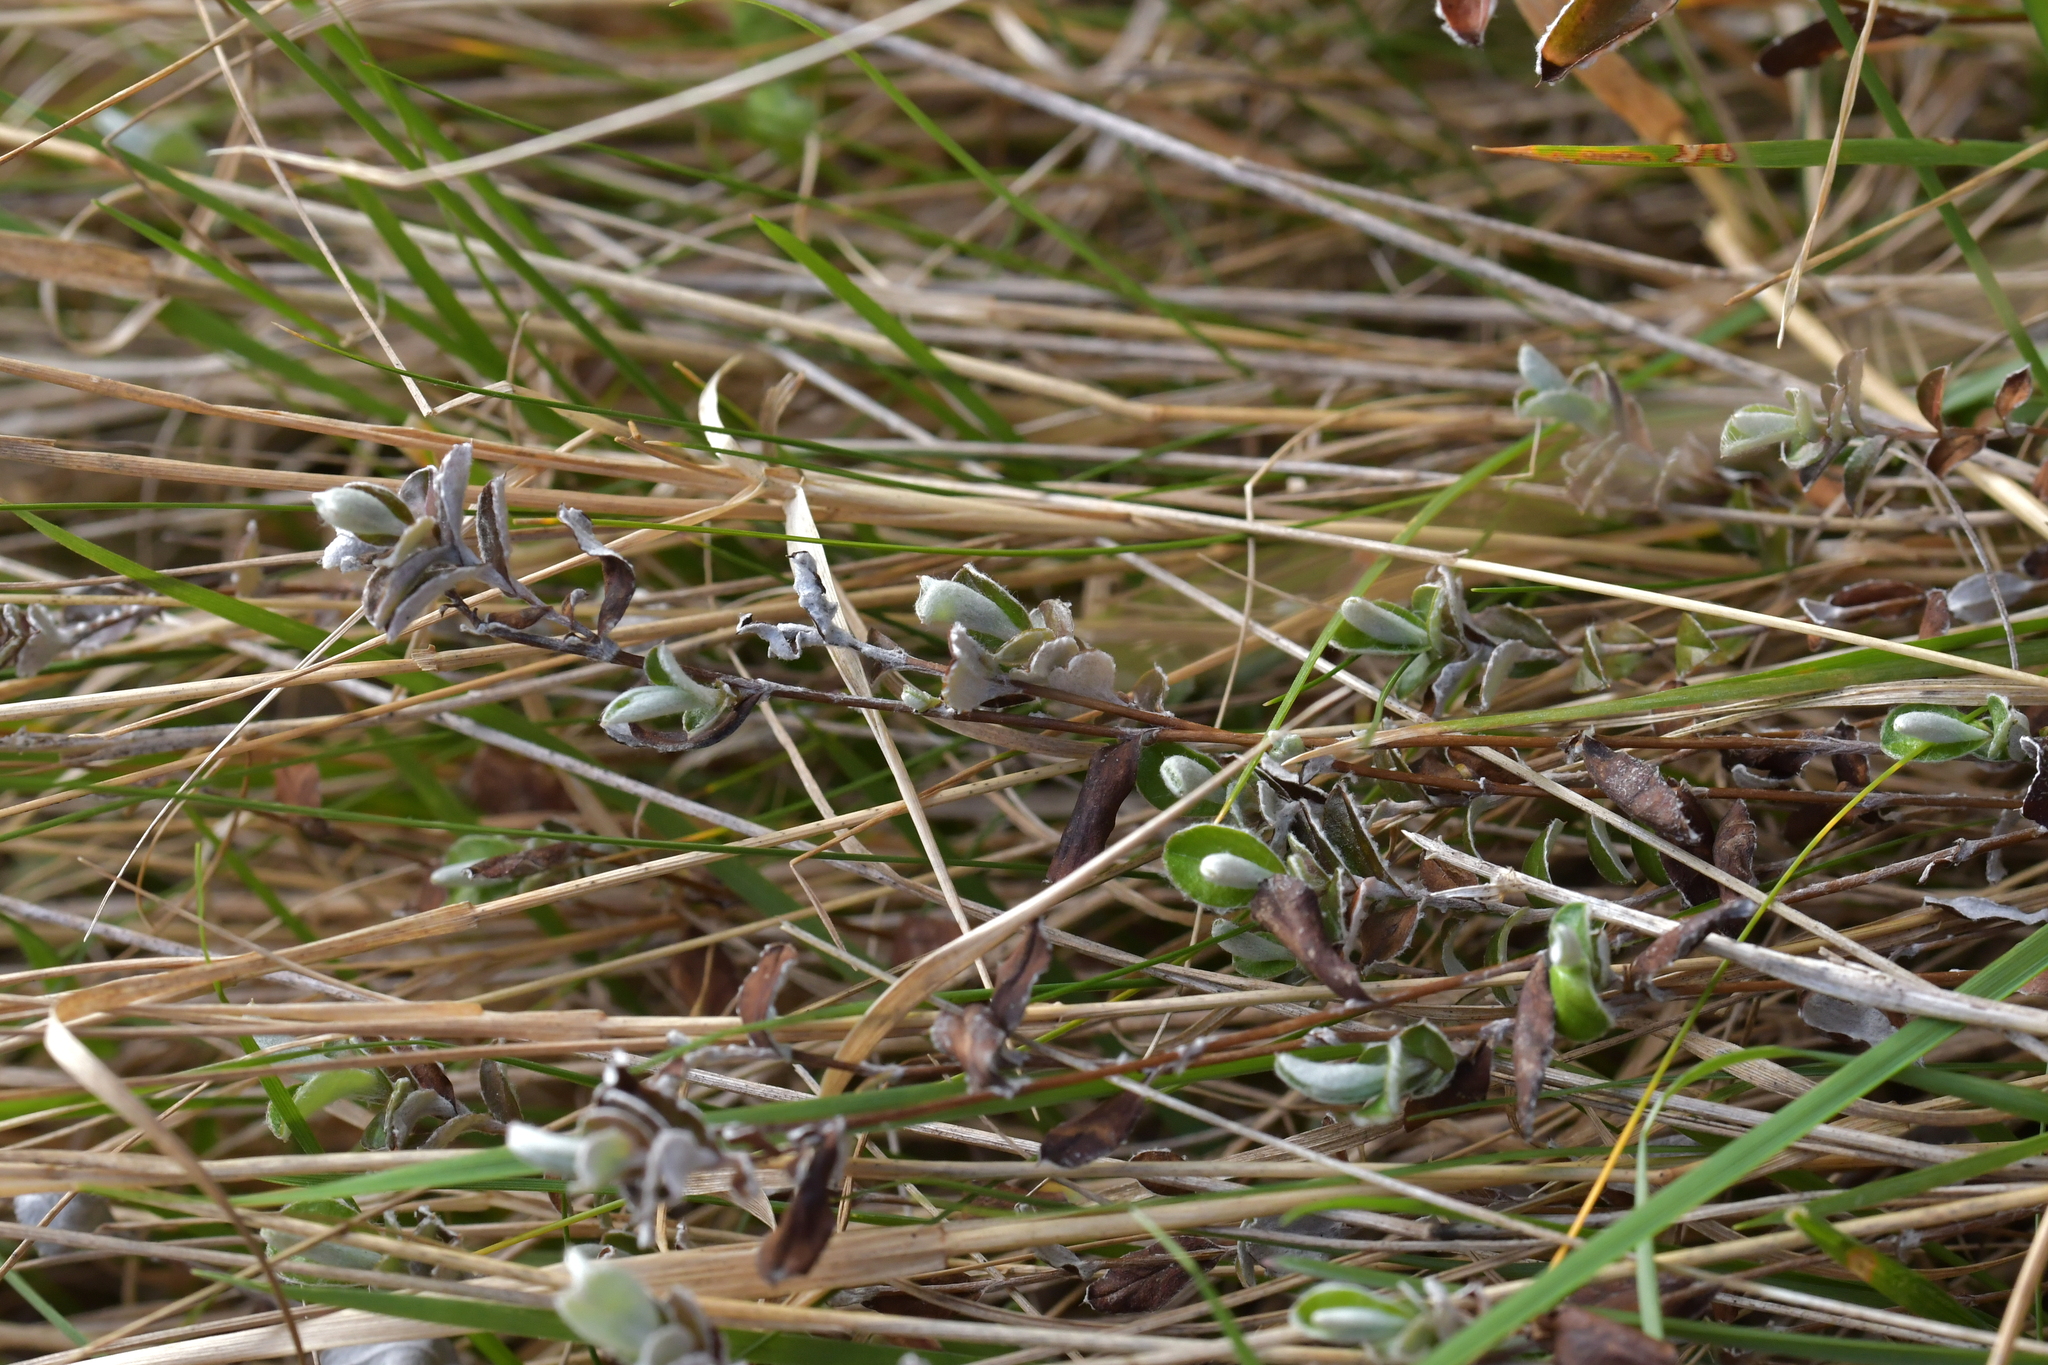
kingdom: Plantae
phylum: Tracheophyta
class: Magnoliopsida
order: Asterales
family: Asteraceae
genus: Helichrysum
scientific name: Helichrysum filicaule
